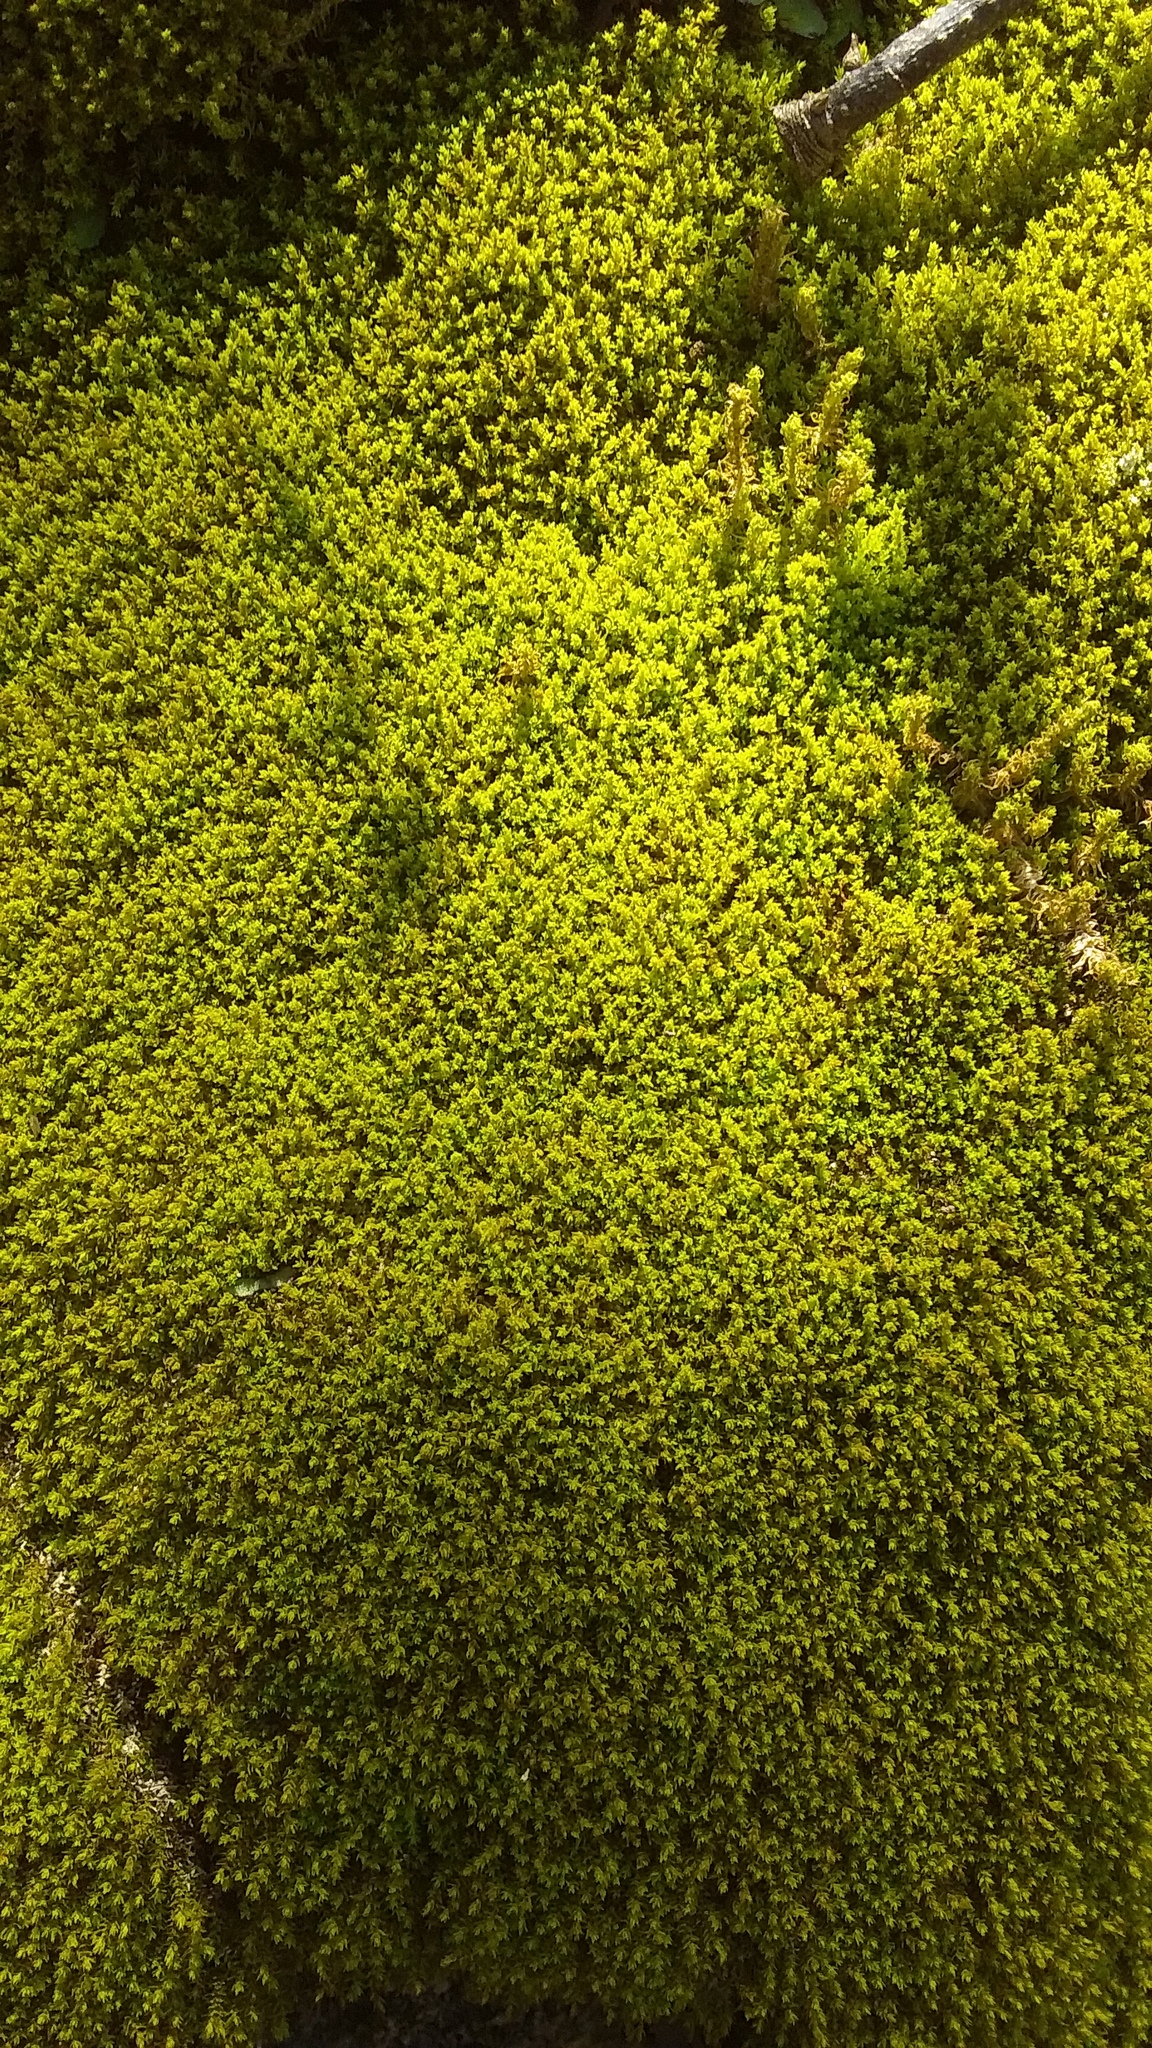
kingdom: Plantae
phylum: Bryophyta
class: Bryopsida
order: Pottiales
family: Pottiaceae
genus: Pleurochaete
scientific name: Pleurochaete luteola
